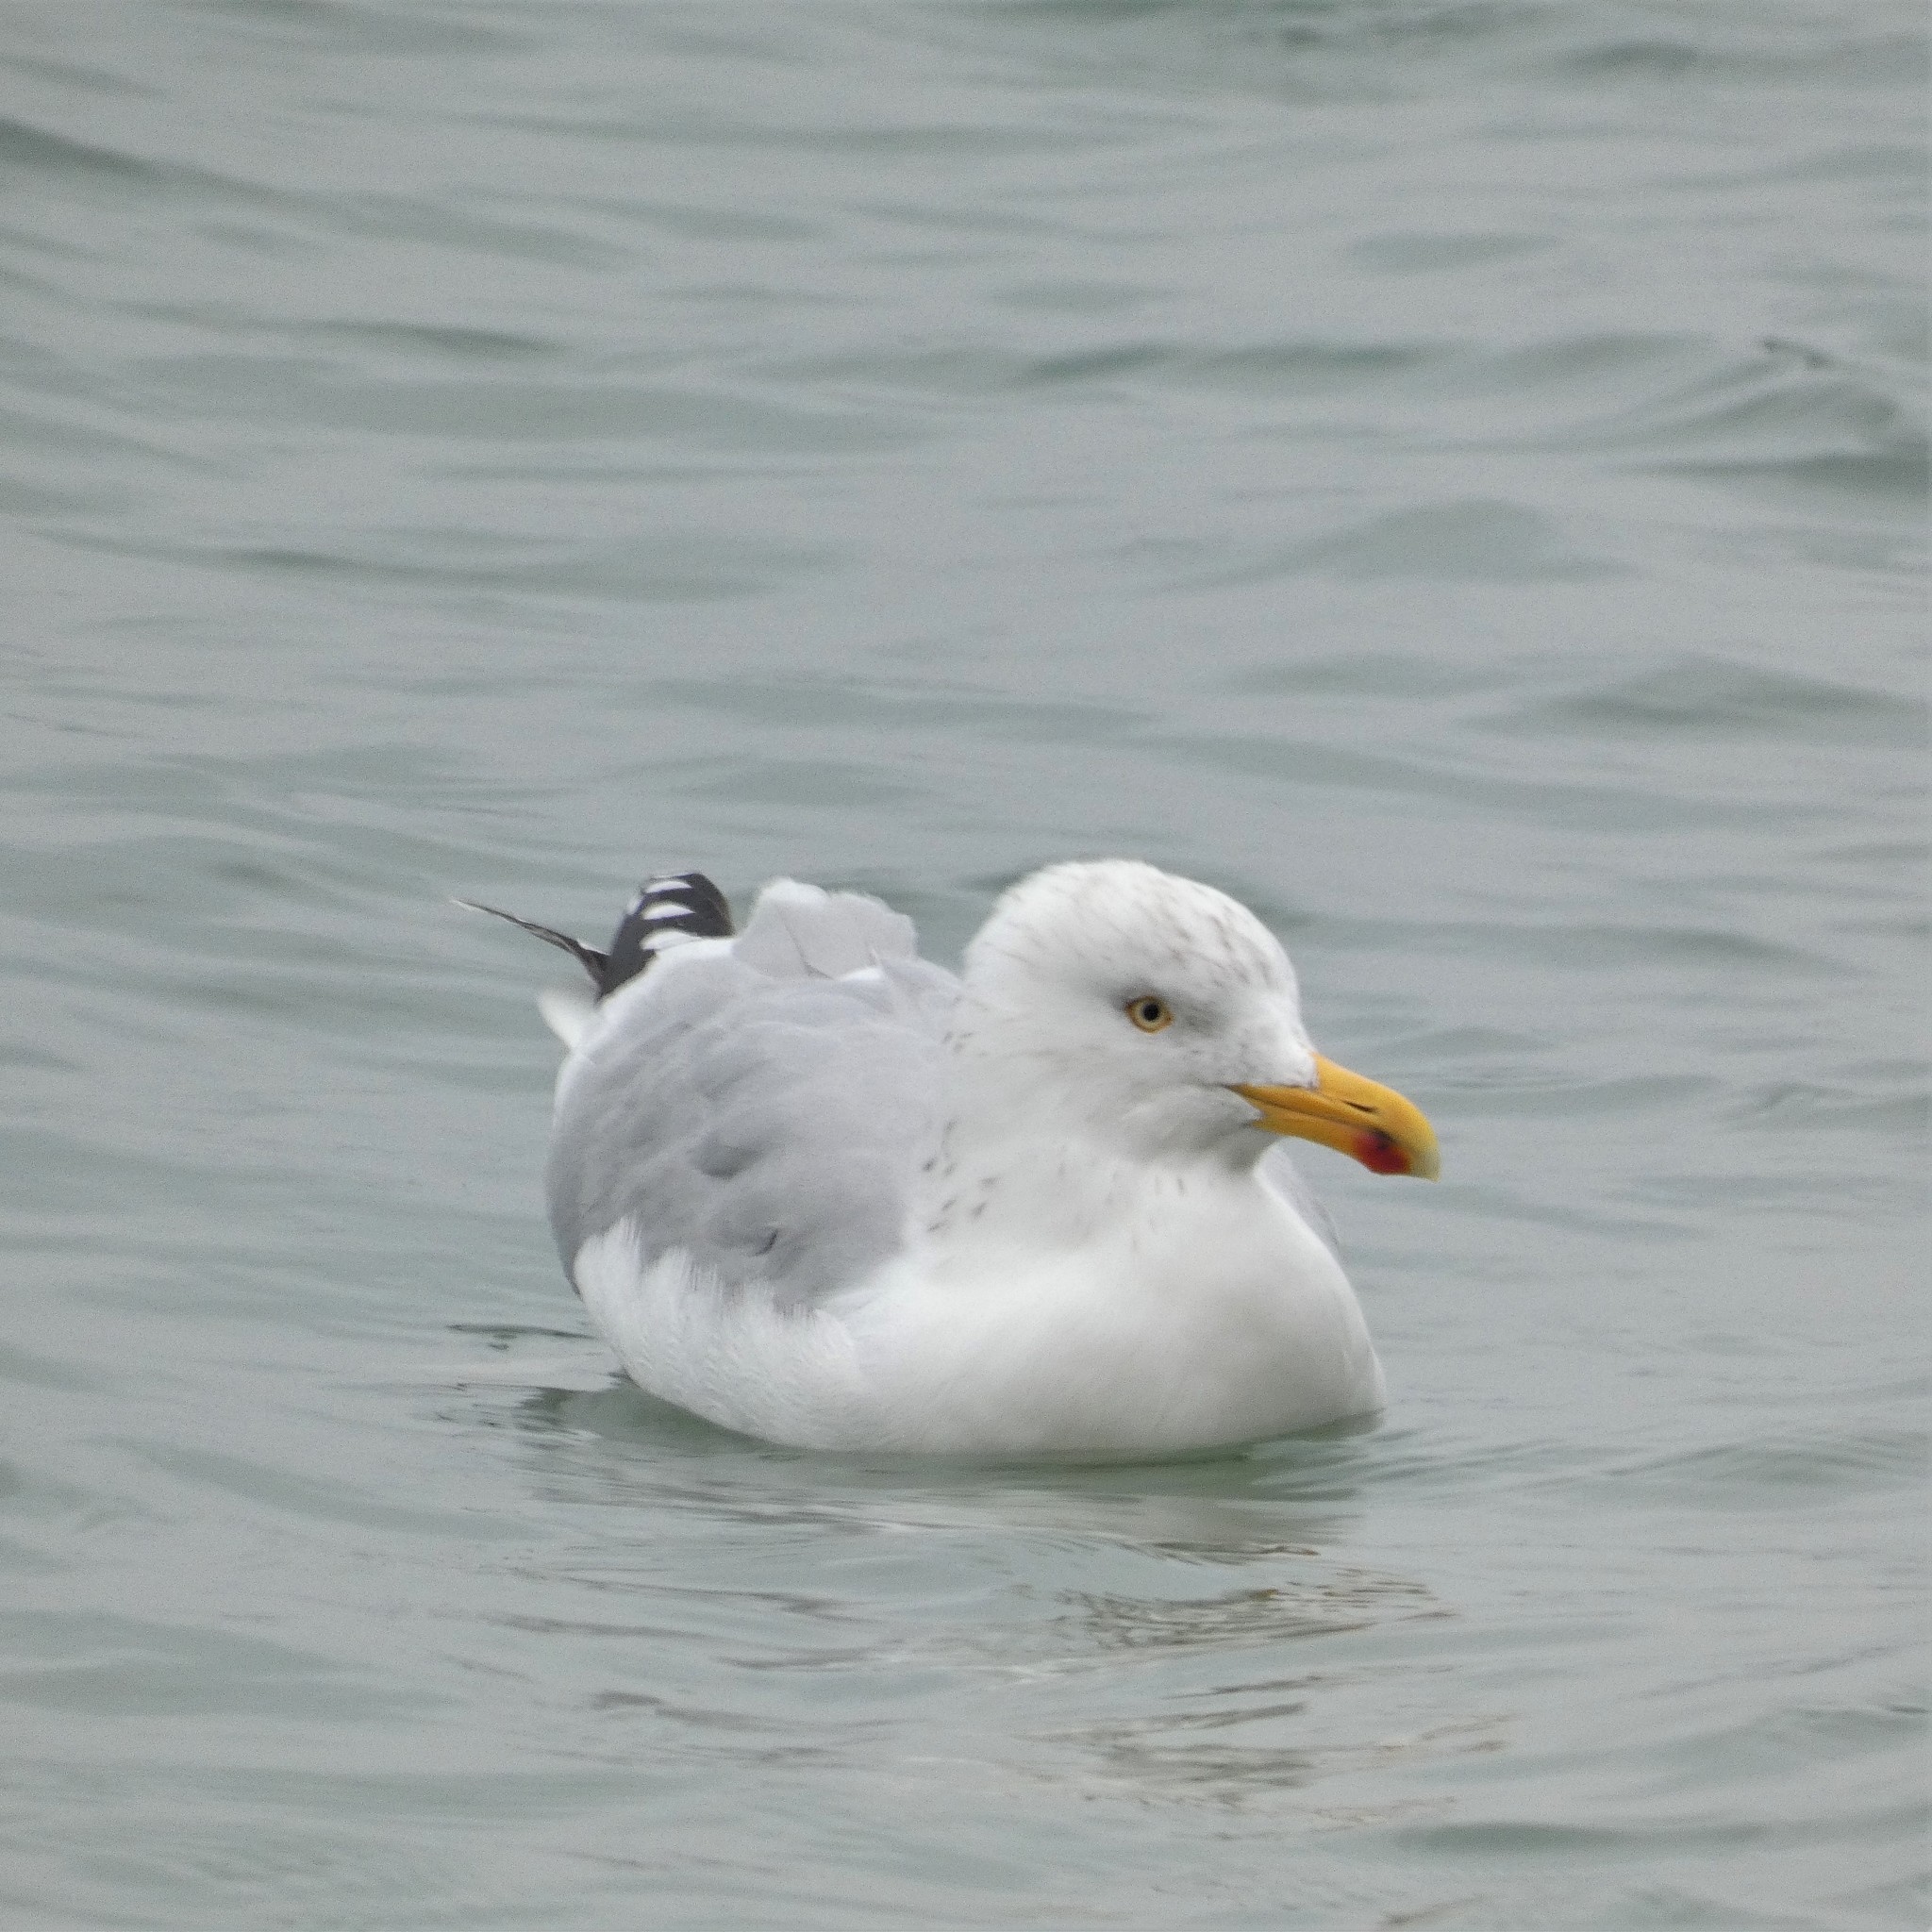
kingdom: Animalia
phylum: Chordata
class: Aves
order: Charadriiformes
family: Laridae
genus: Larus
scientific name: Larus argentatus
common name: Herring gull
